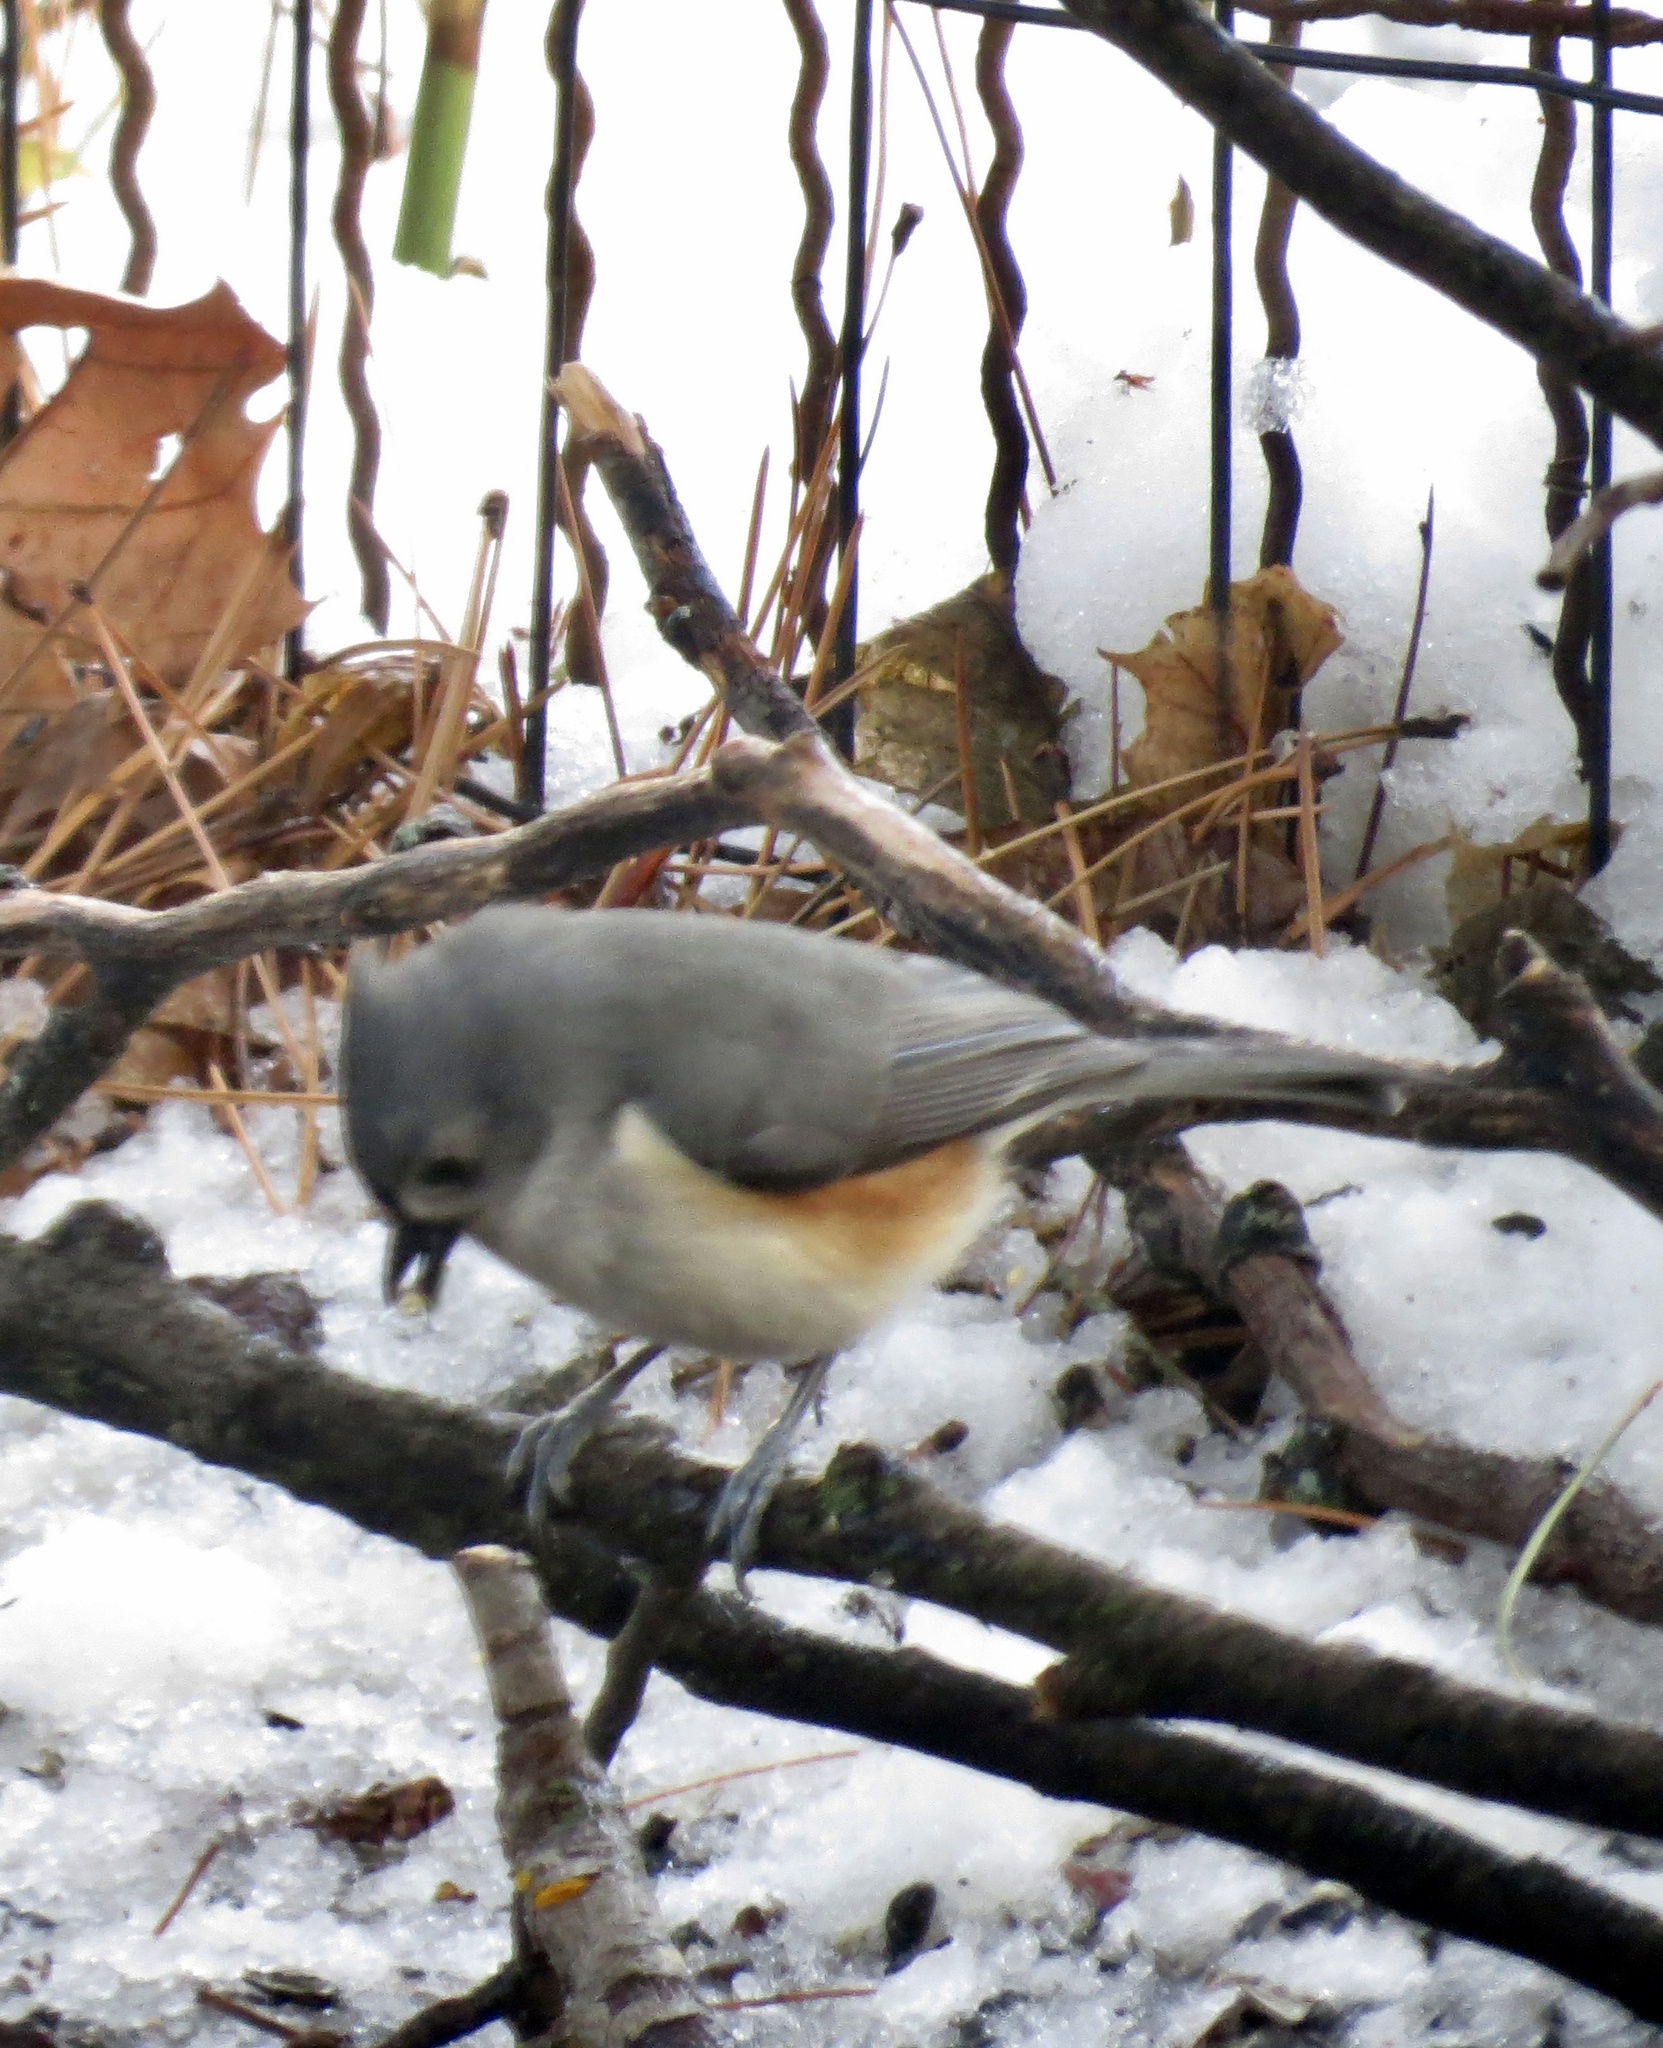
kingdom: Animalia
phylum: Chordata
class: Aves
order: Passeriformes
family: Paridae
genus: Baeolophus
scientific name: Baeolophus bicolor
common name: Tufted titmouse
